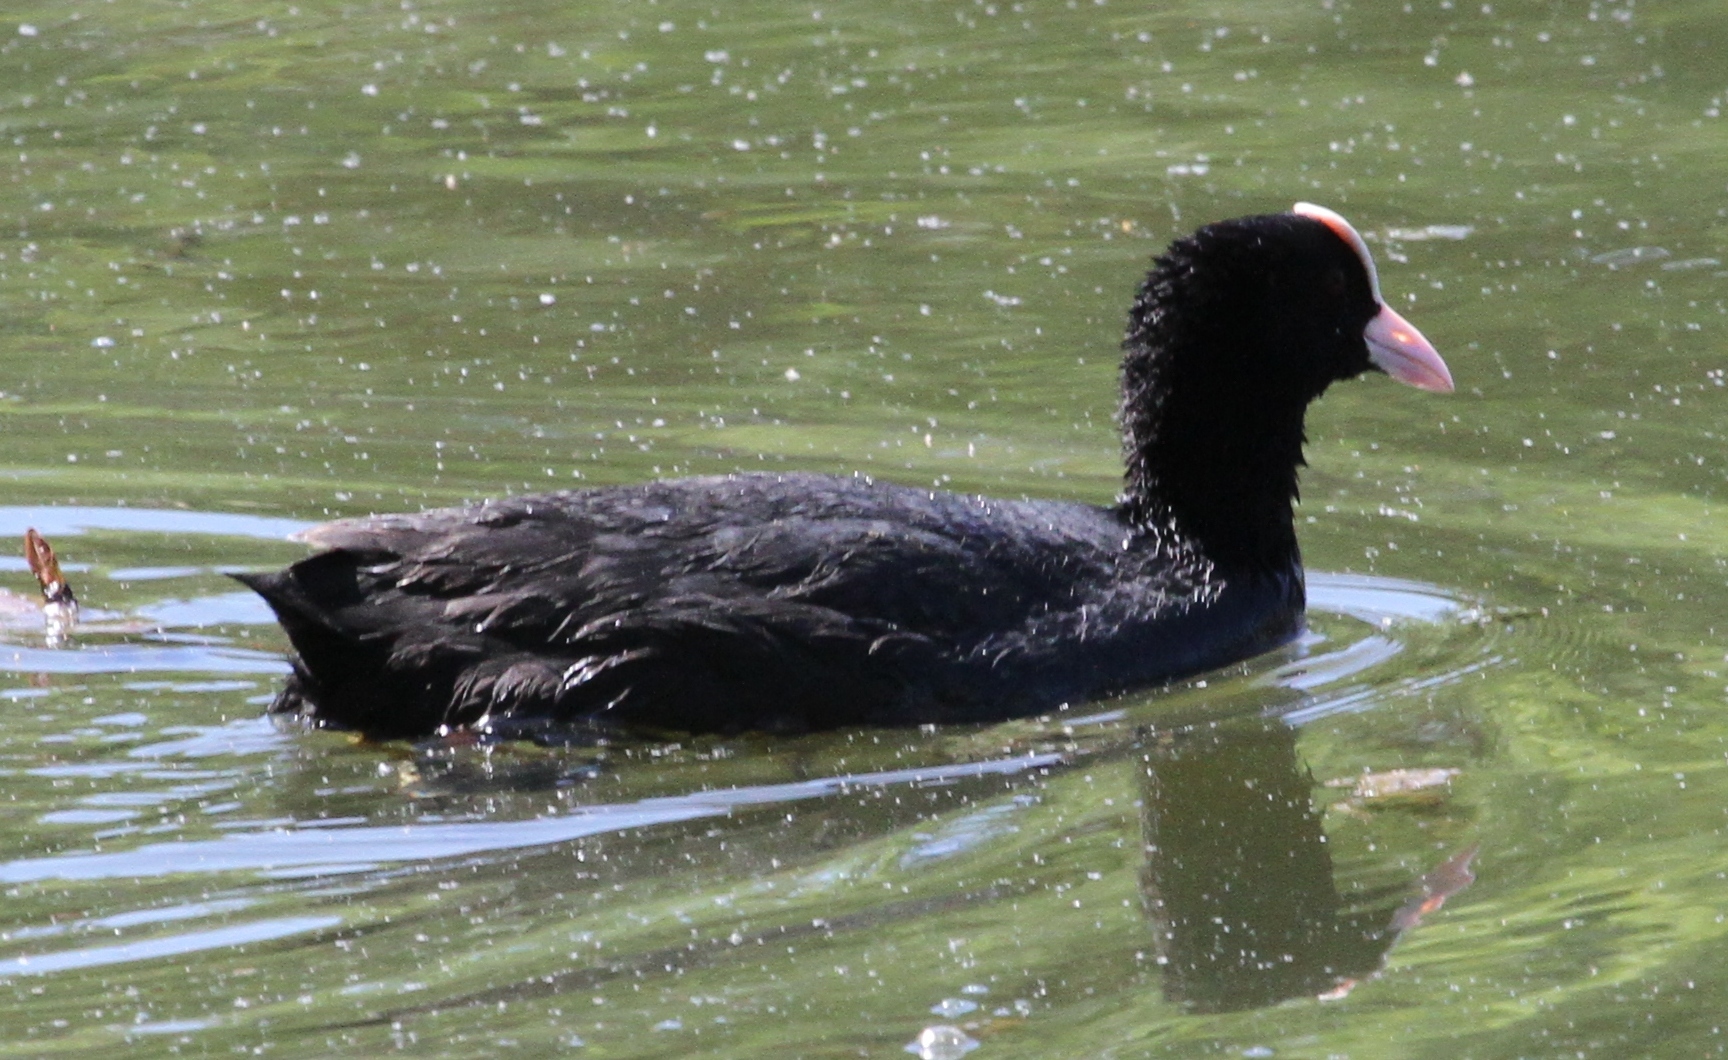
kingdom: Animalia
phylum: Chordata
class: Aves
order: Gruiformes
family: Rallidae
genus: Fulica
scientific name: Fulica atra
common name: Eurasian coot
